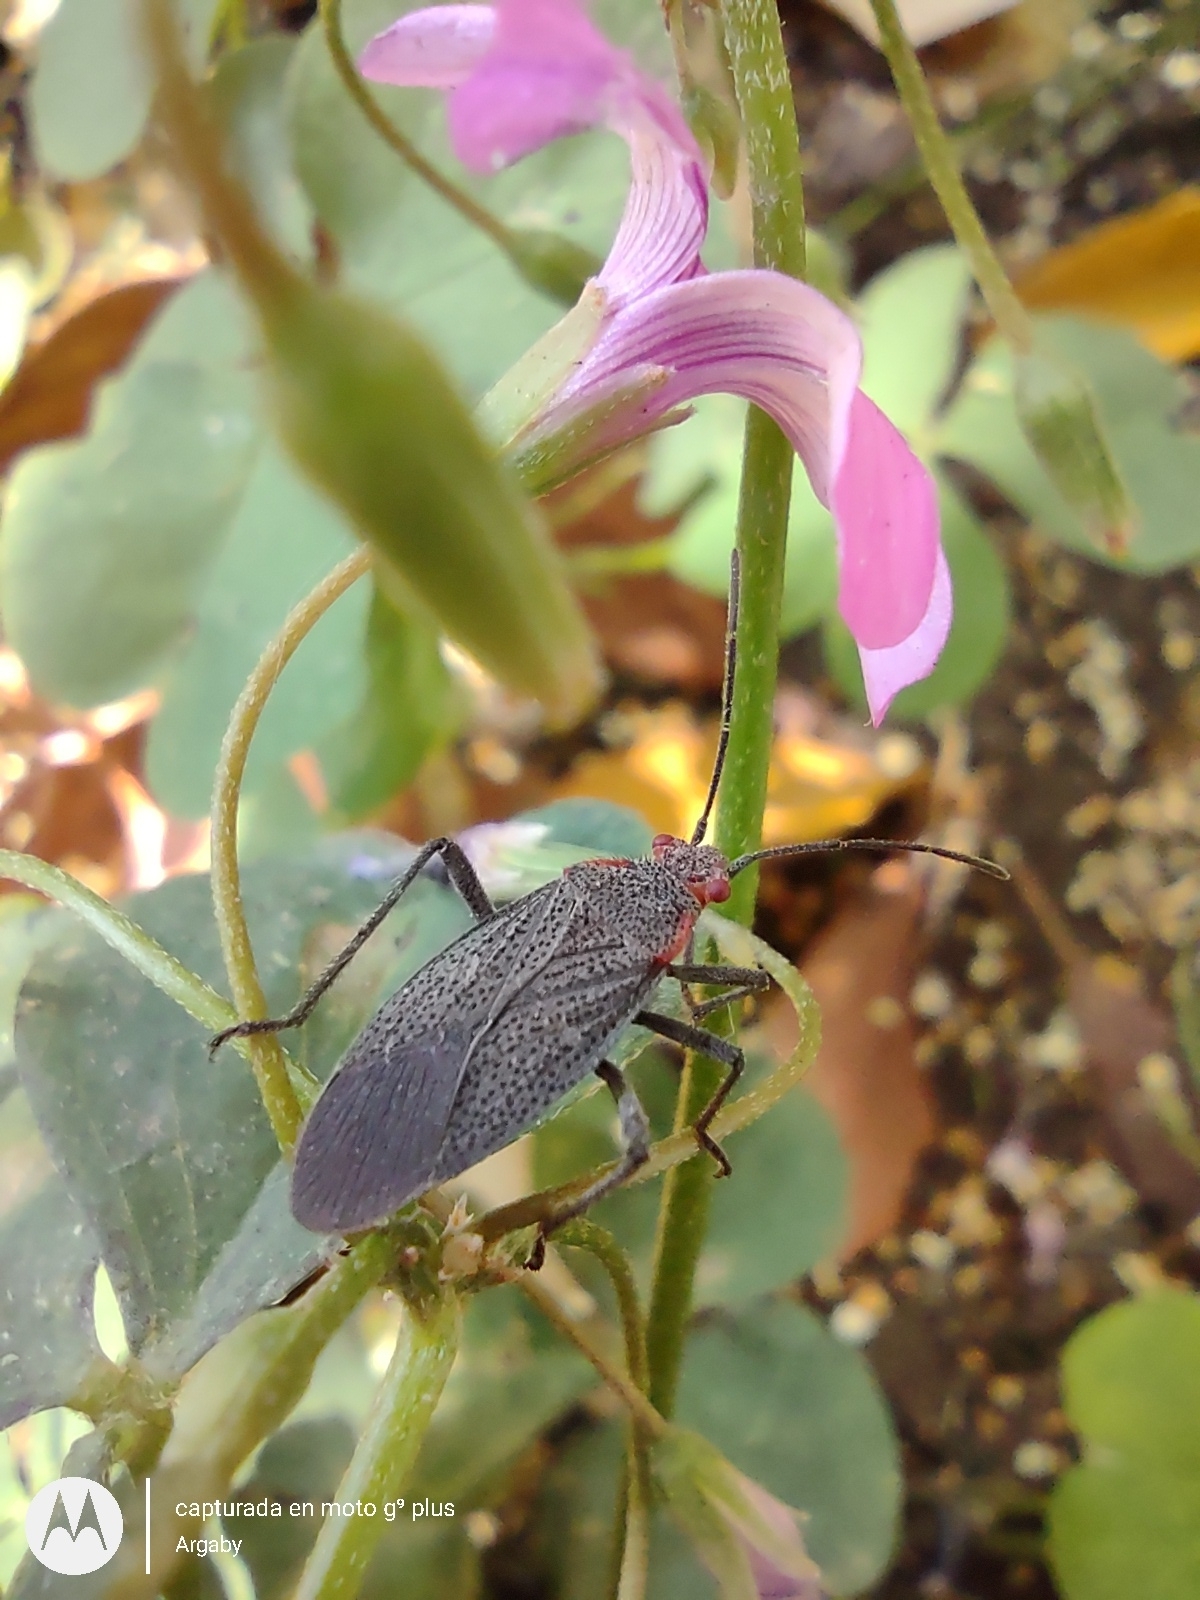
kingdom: Animalia
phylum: Arthropoda
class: Insecta
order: Hemiptera
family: Rhopalidae
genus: Jadera
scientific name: Jadera parapectoralis
